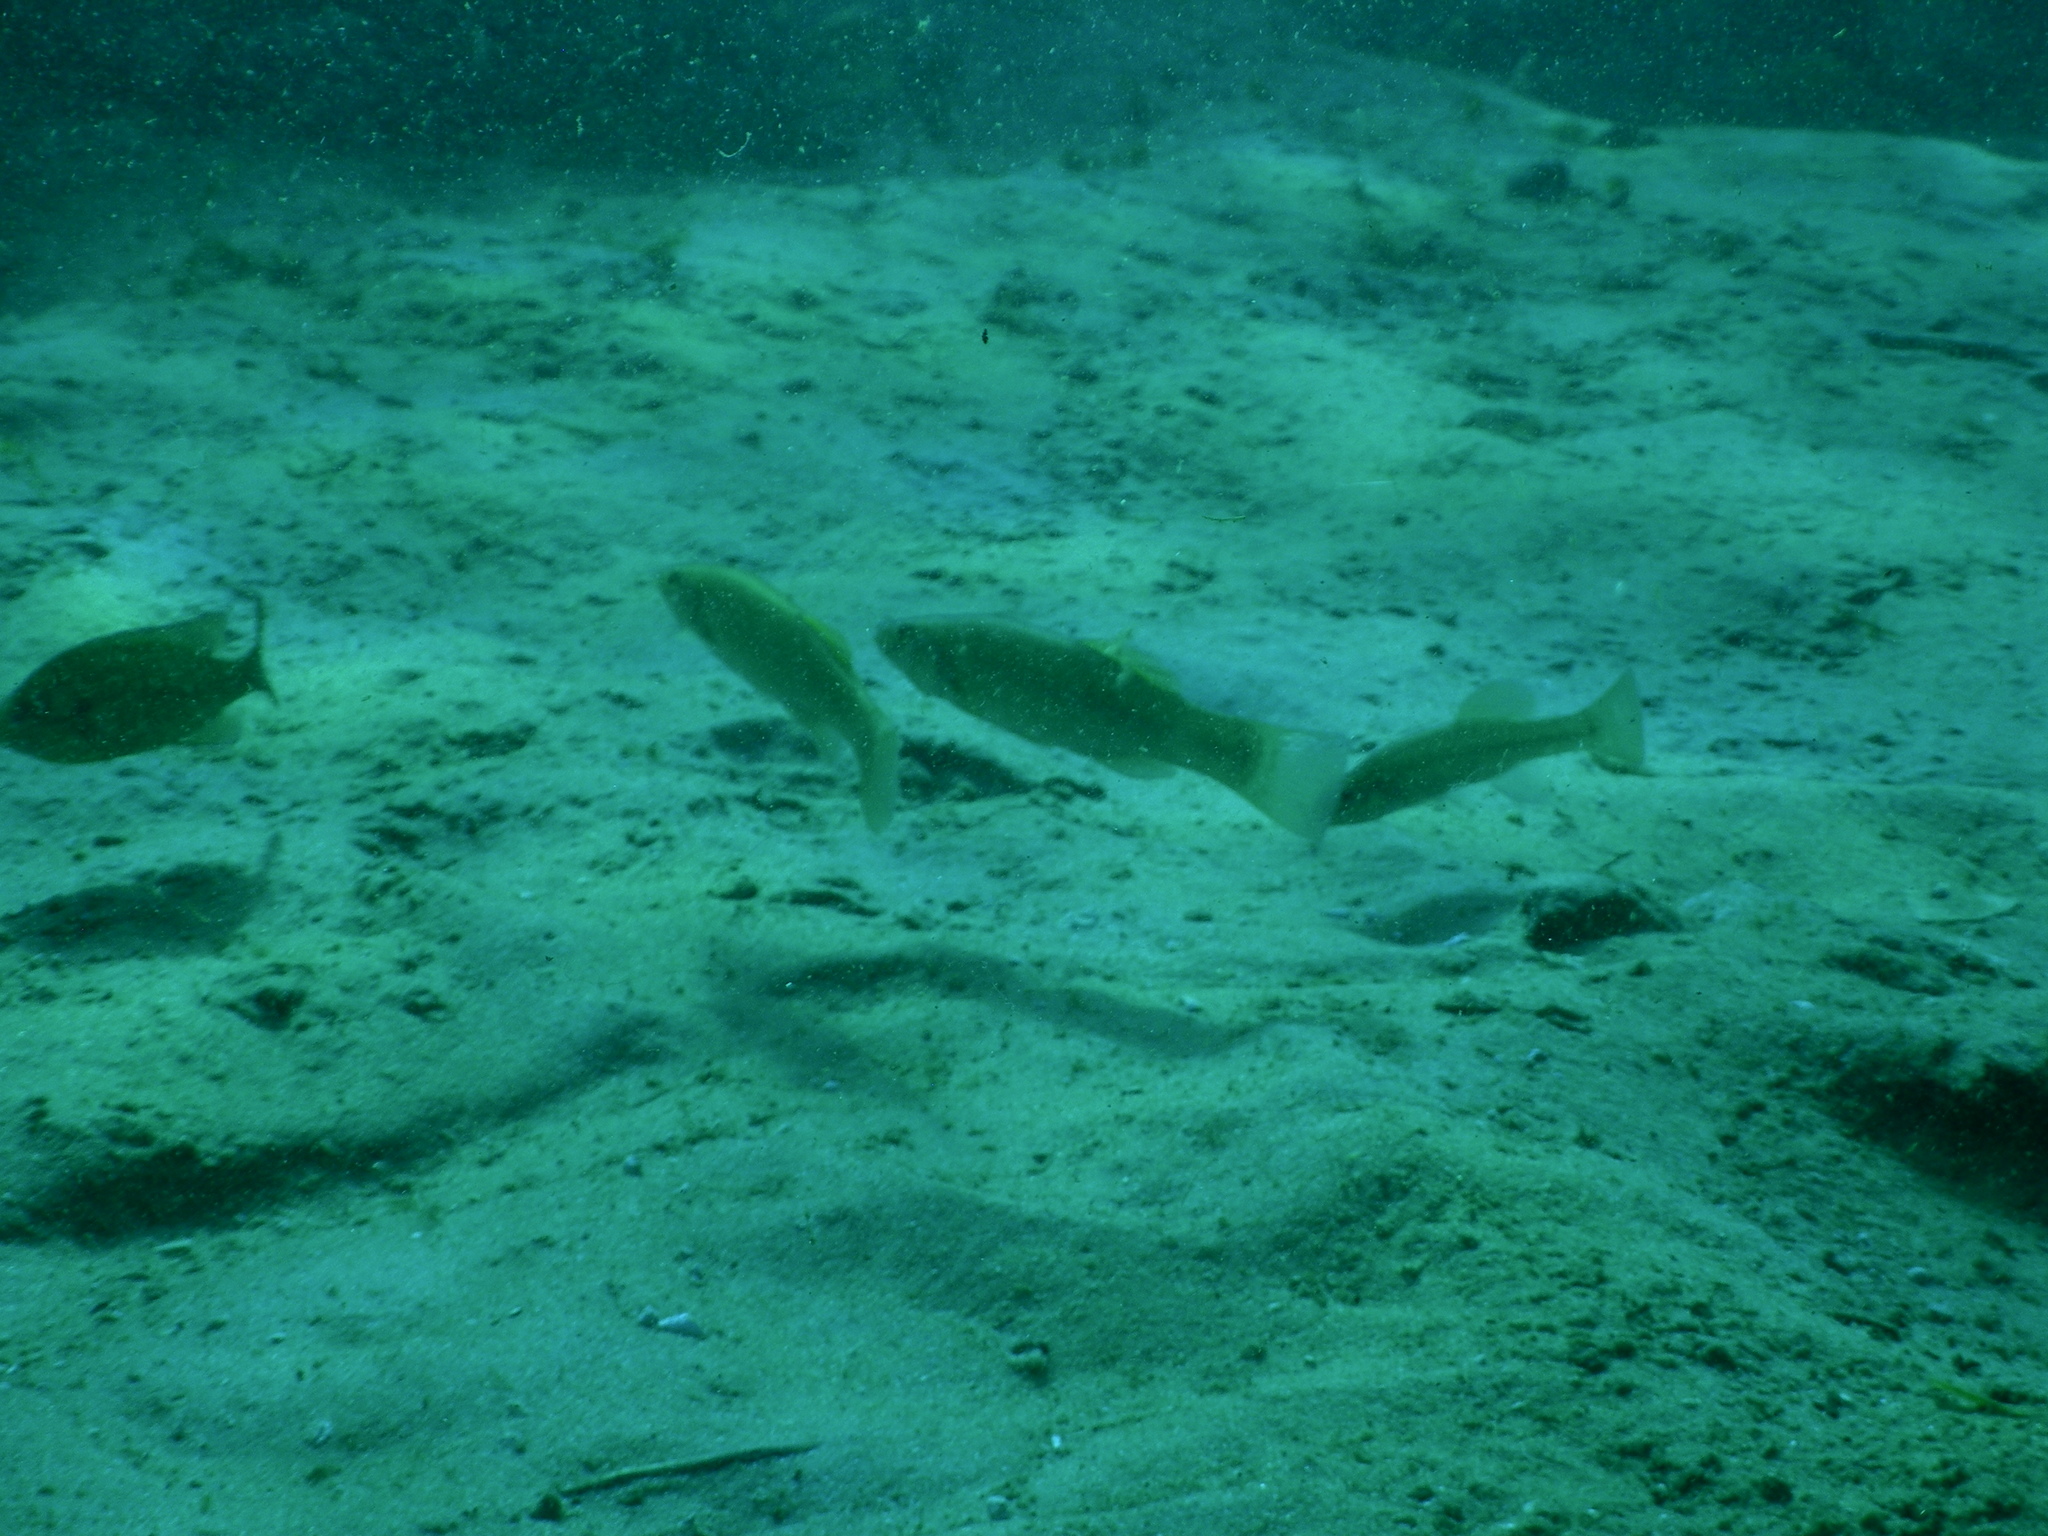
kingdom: Animalia
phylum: Chordata
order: Cyprinodontiformes
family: Fundulidae
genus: Fundulus
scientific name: Fundulus seminolis
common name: Seminole killifish
